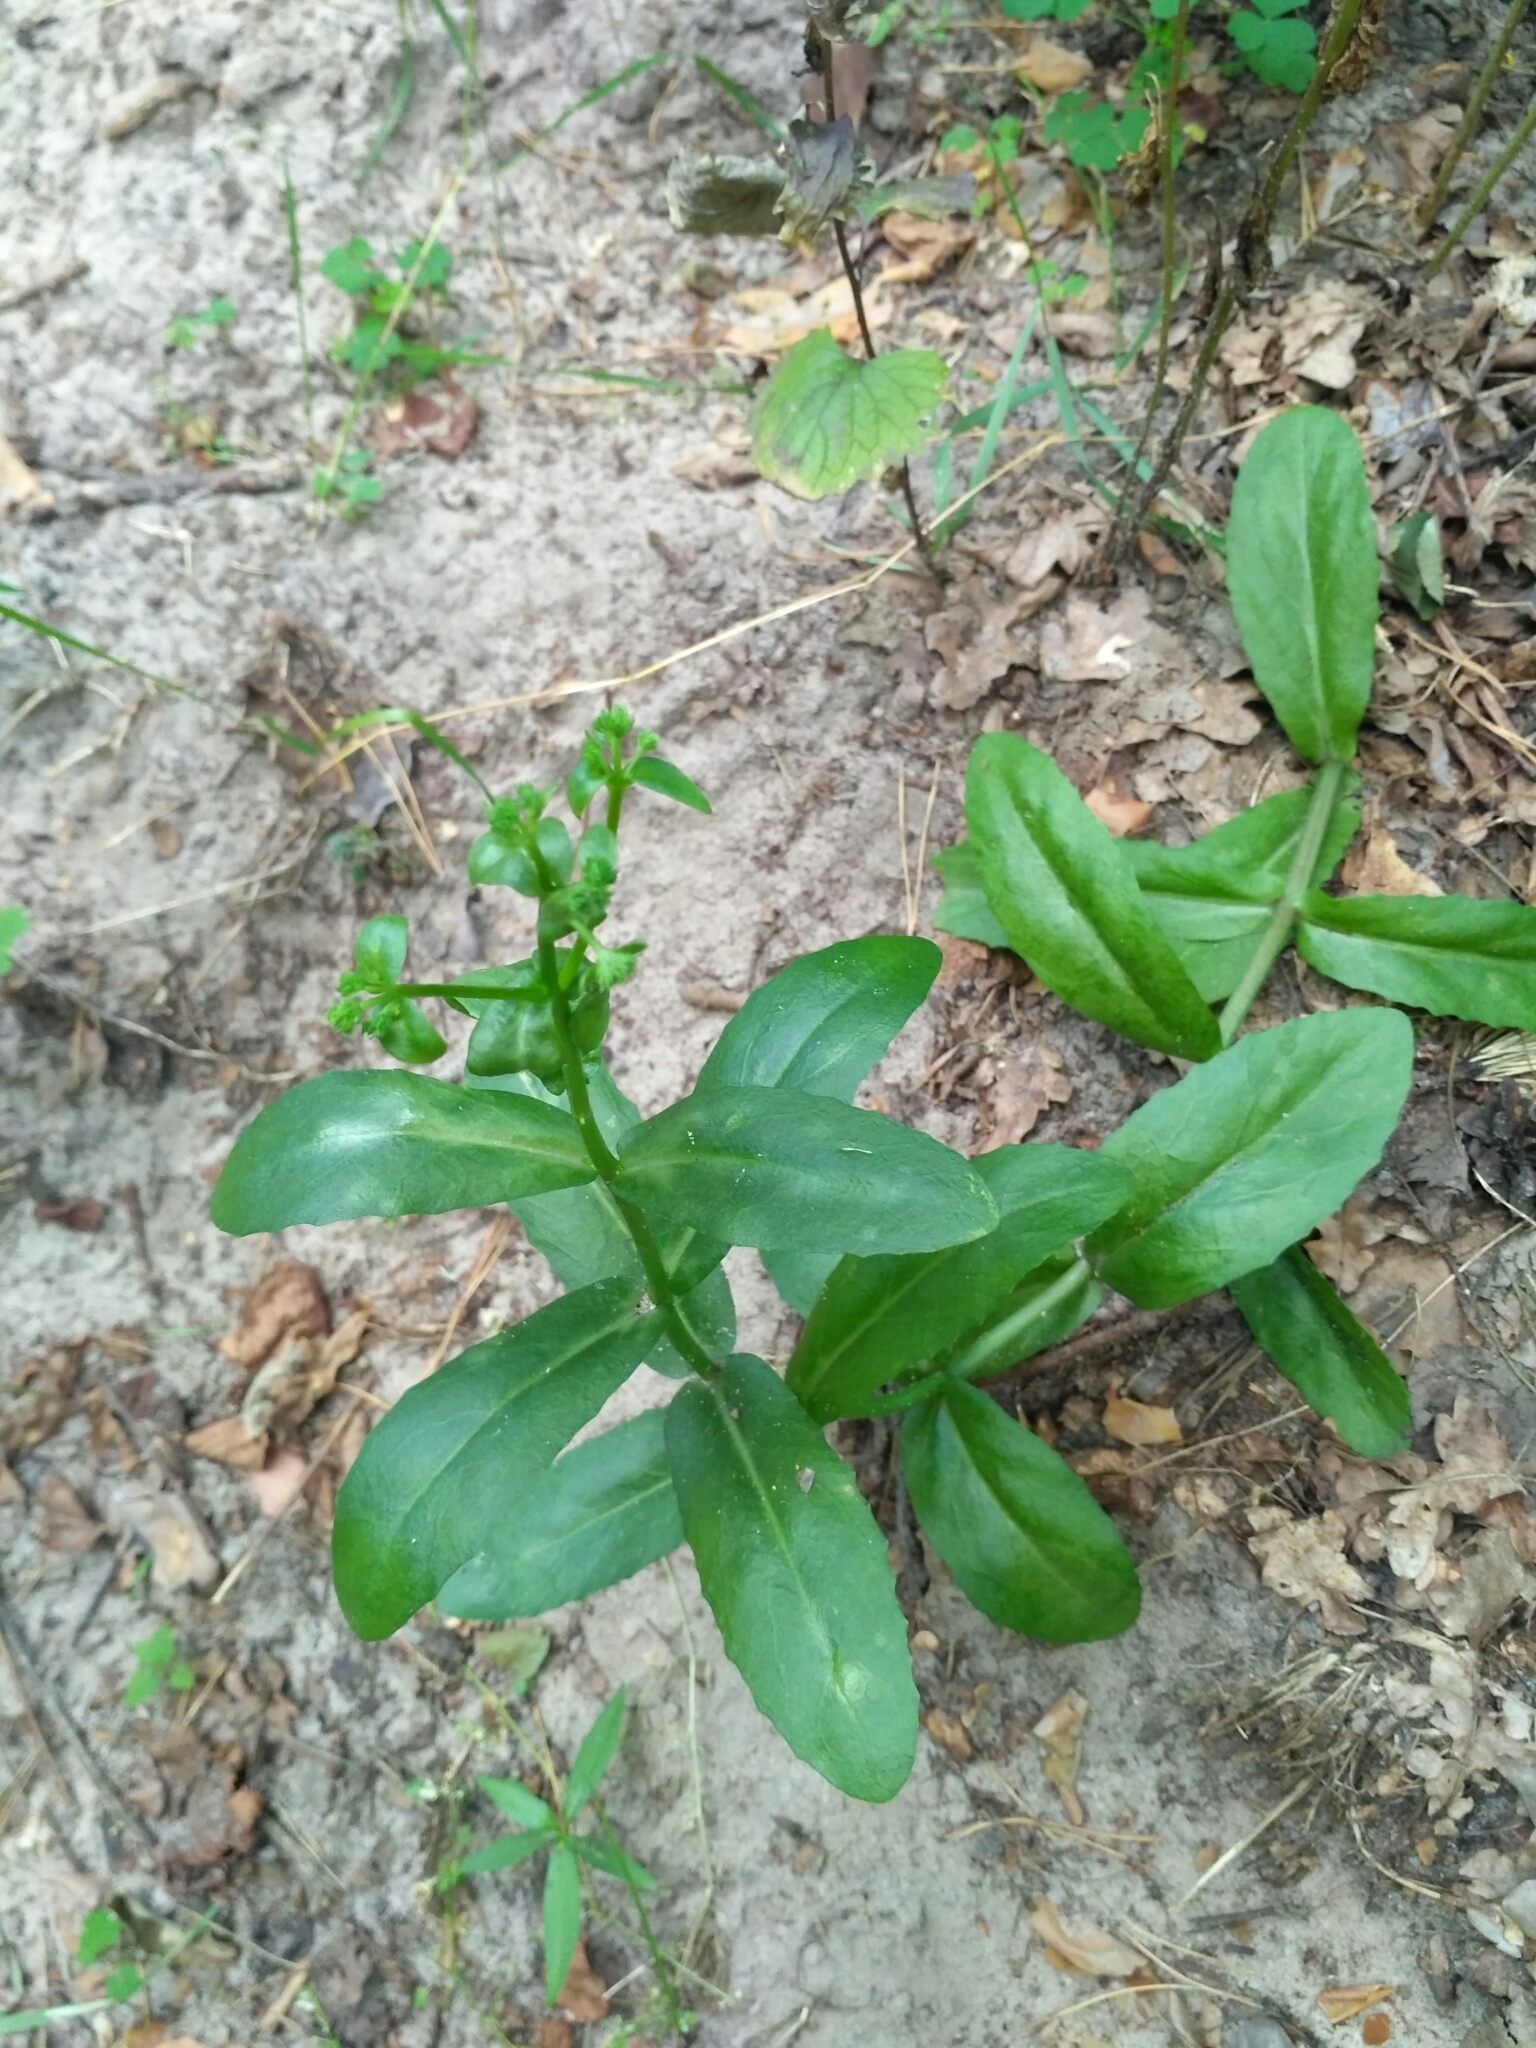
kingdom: Plantae
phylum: Tracheophyta
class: Magnoliopsida
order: Saxifragales
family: Crassulaceae
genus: Hylotelephium
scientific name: Hylotelephium maximum
